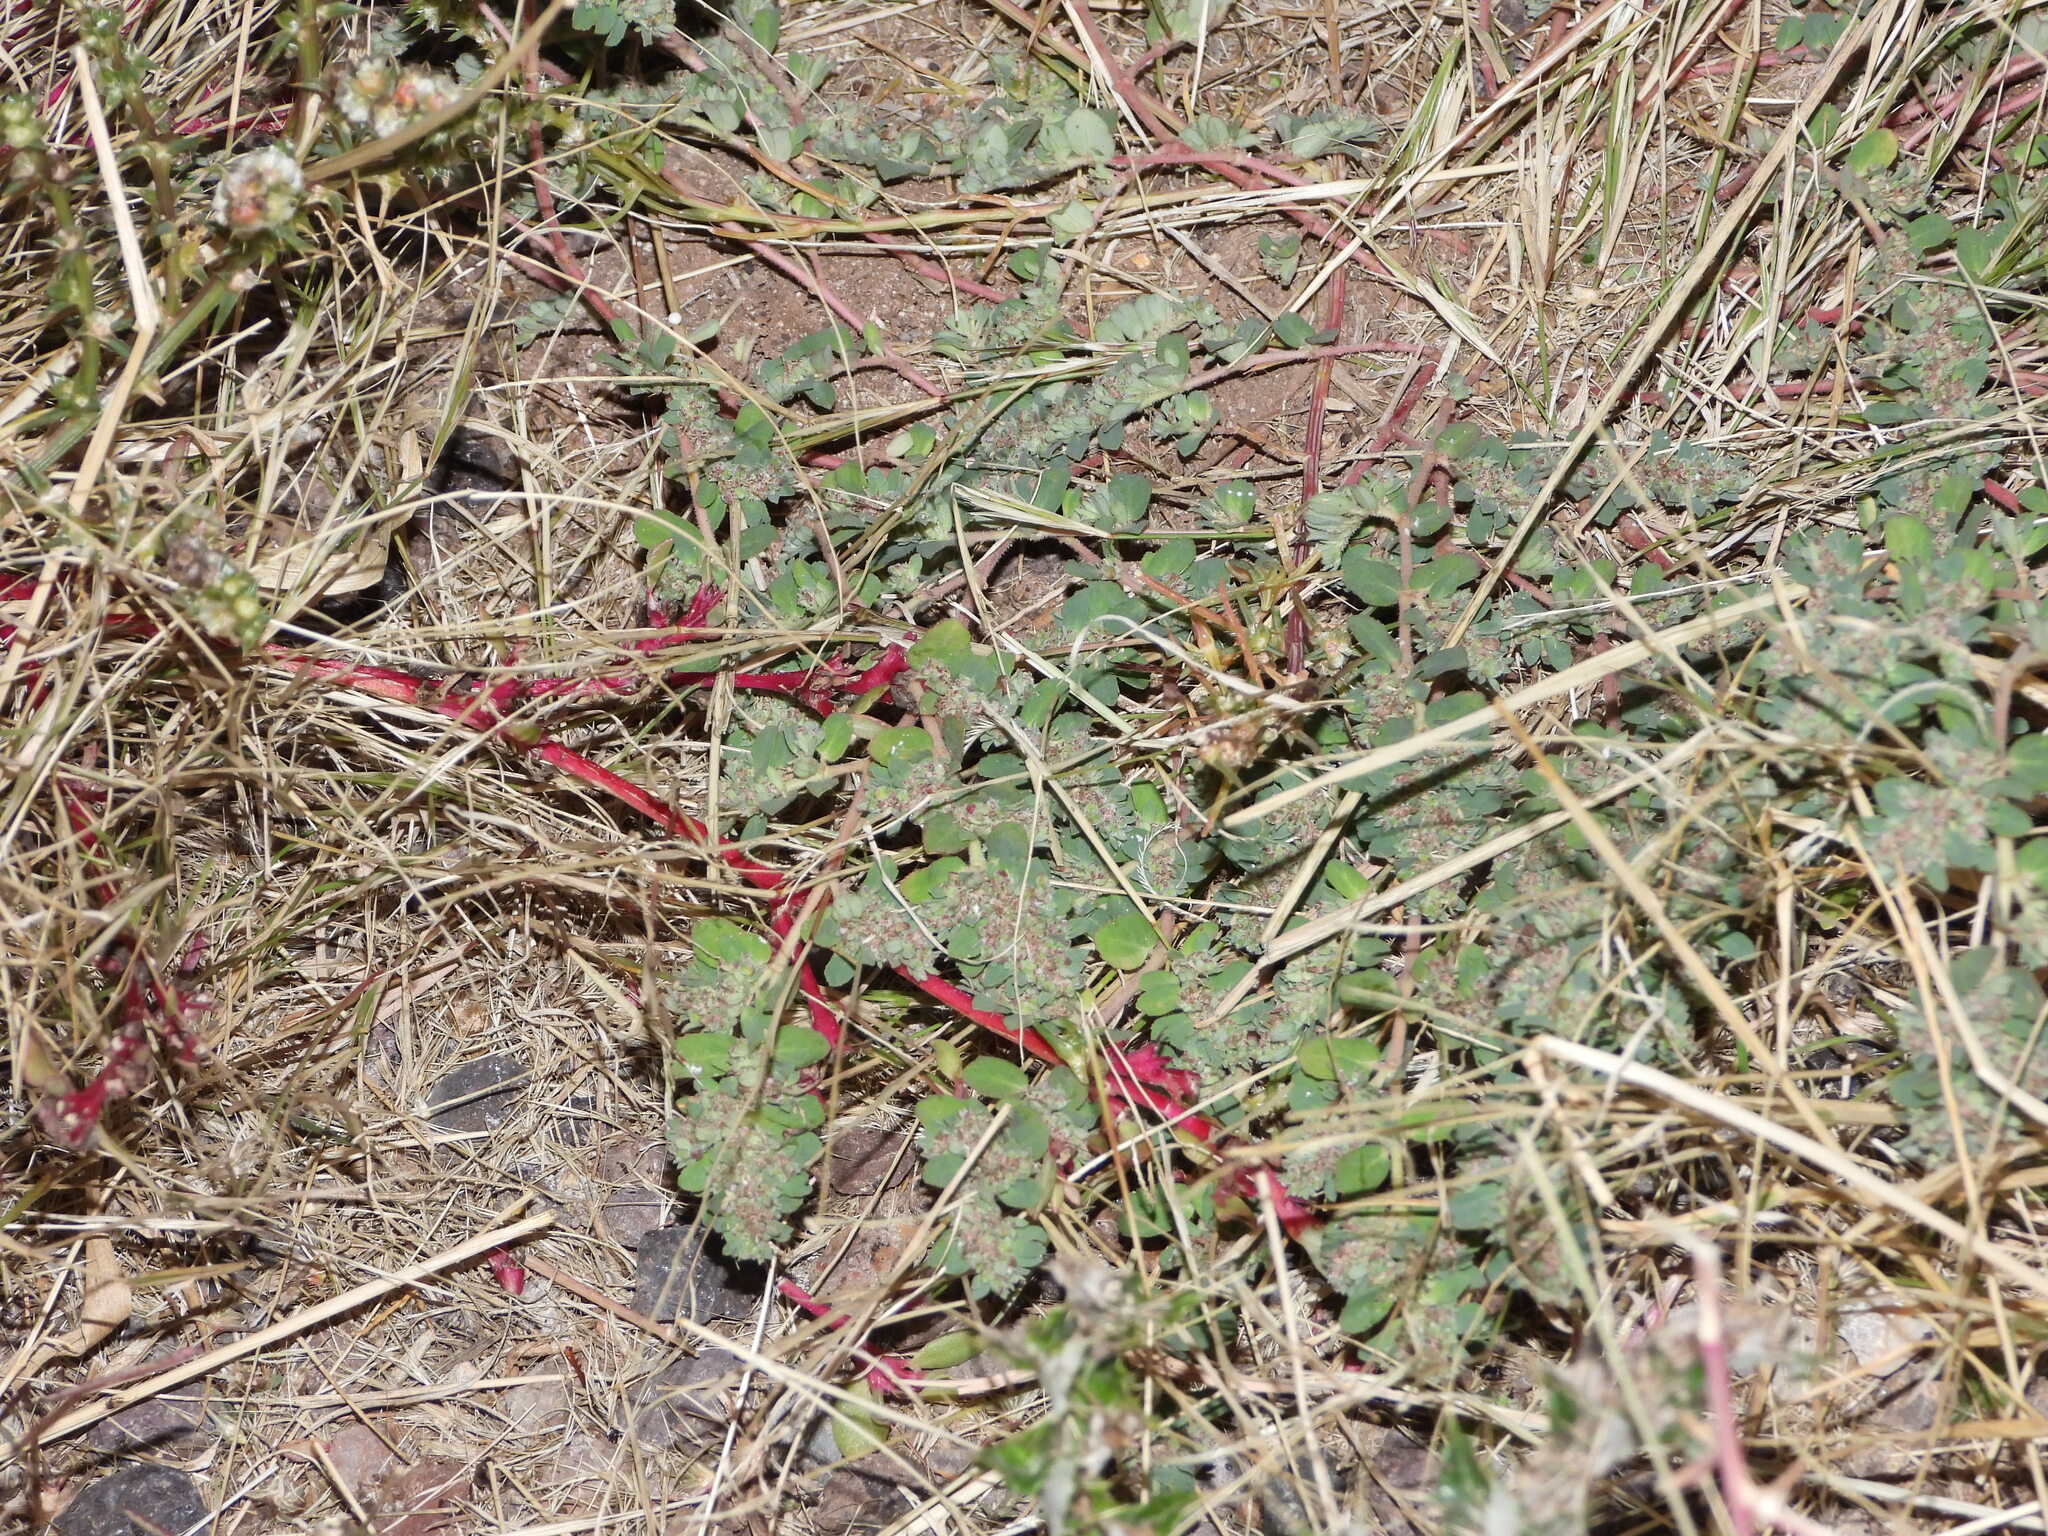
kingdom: Plantae
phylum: Tracheophyta
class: Magnoliopsida
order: Malpighiales
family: Euphorbiaceae
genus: Euphorbia
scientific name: Euphorbia stictospora
